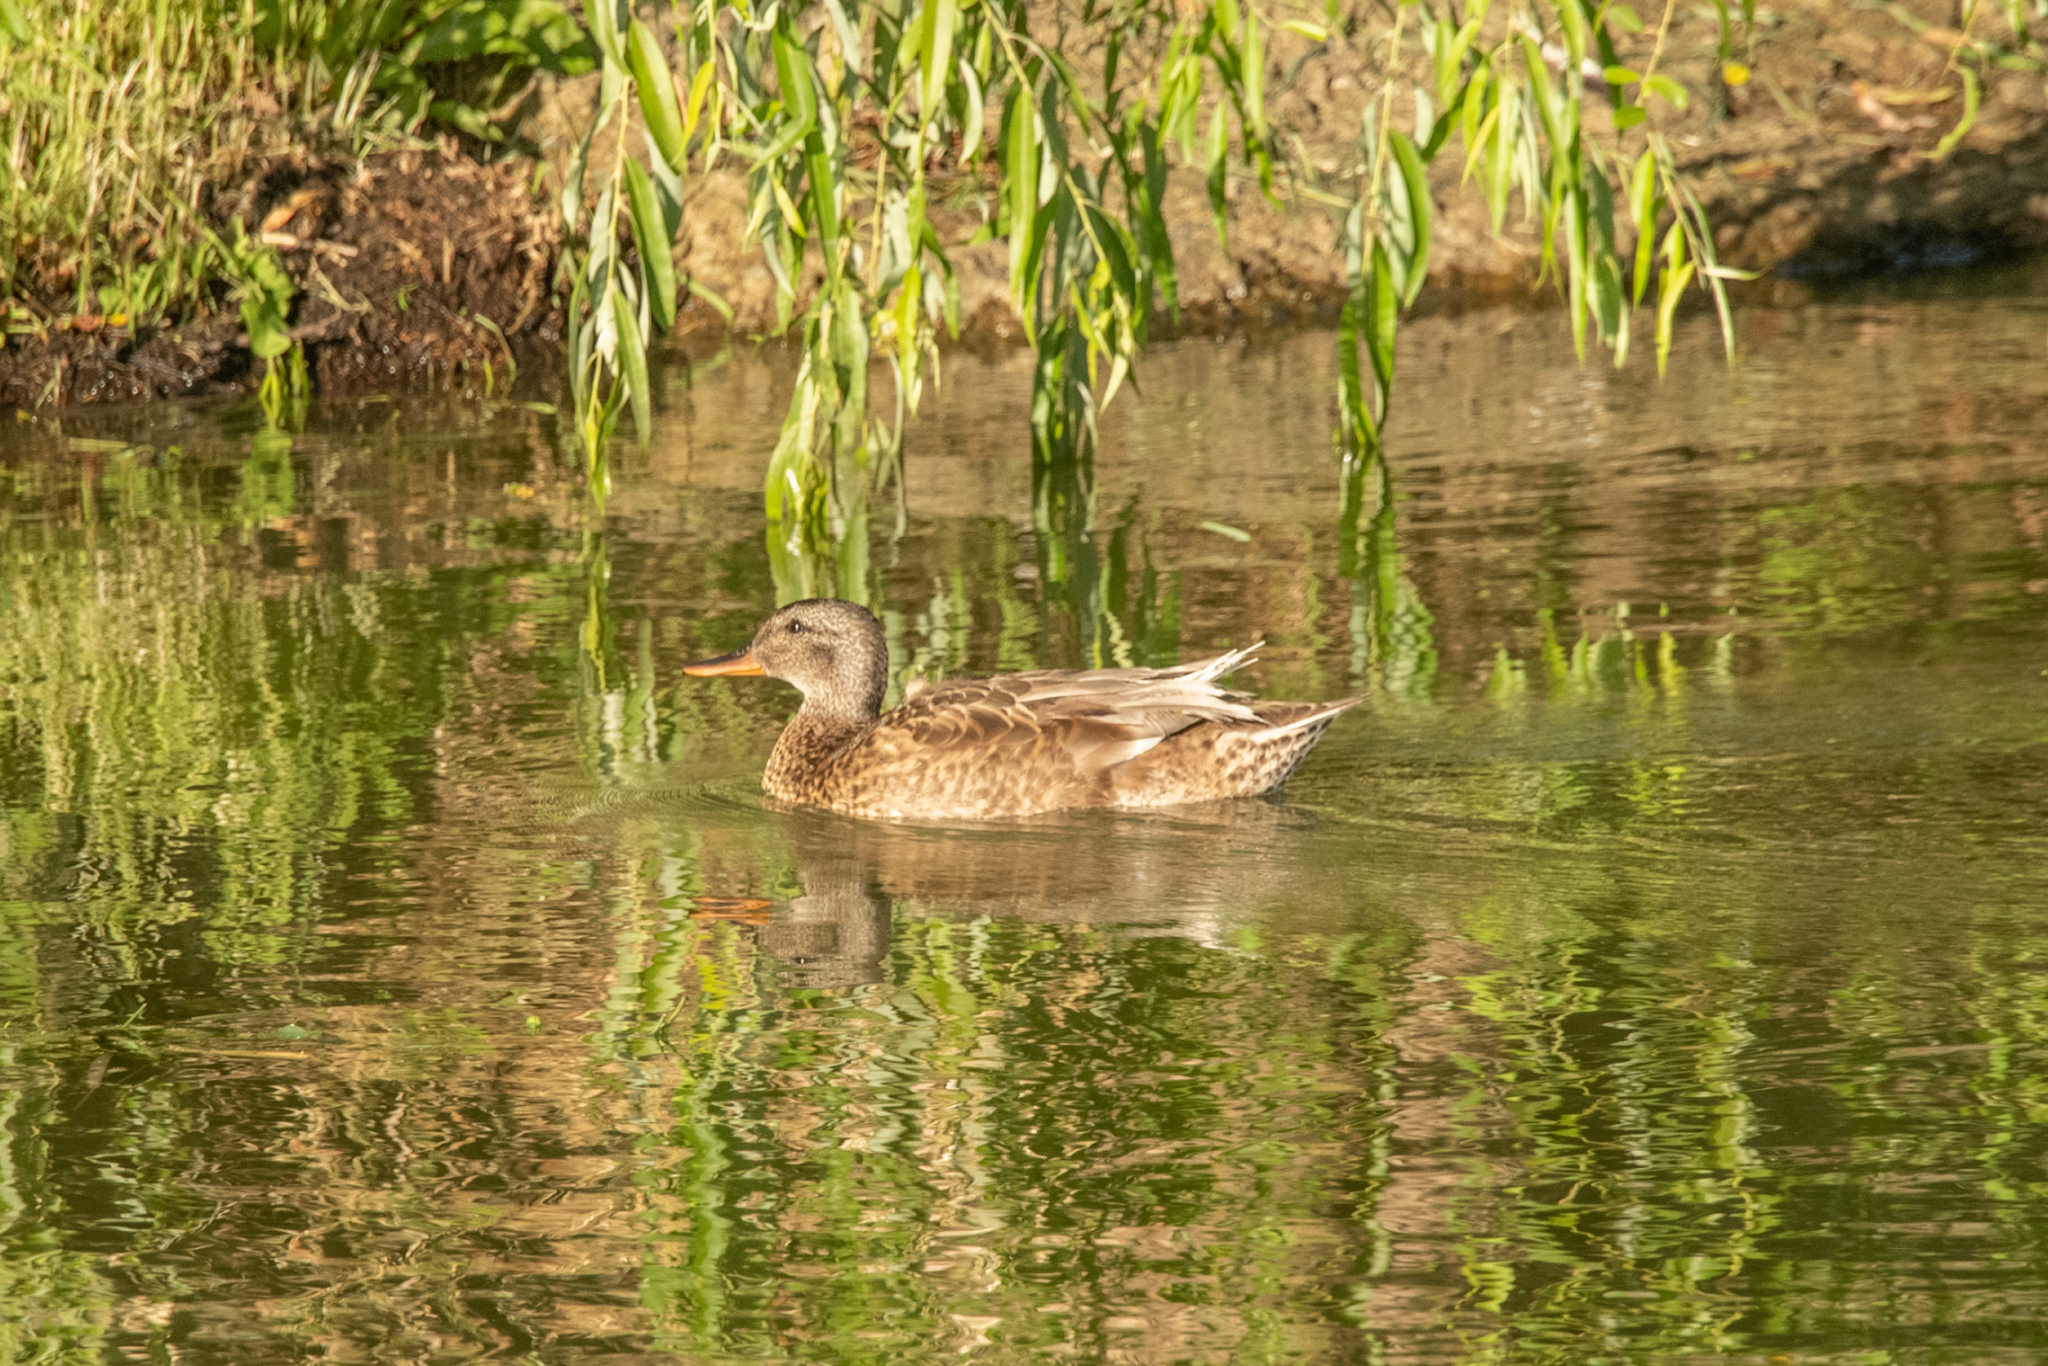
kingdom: Animalia
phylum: Chordata
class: Aves
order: Anseriformes
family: Anatidae
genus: Anas
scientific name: Anas platyrhynchos
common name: Mallard
